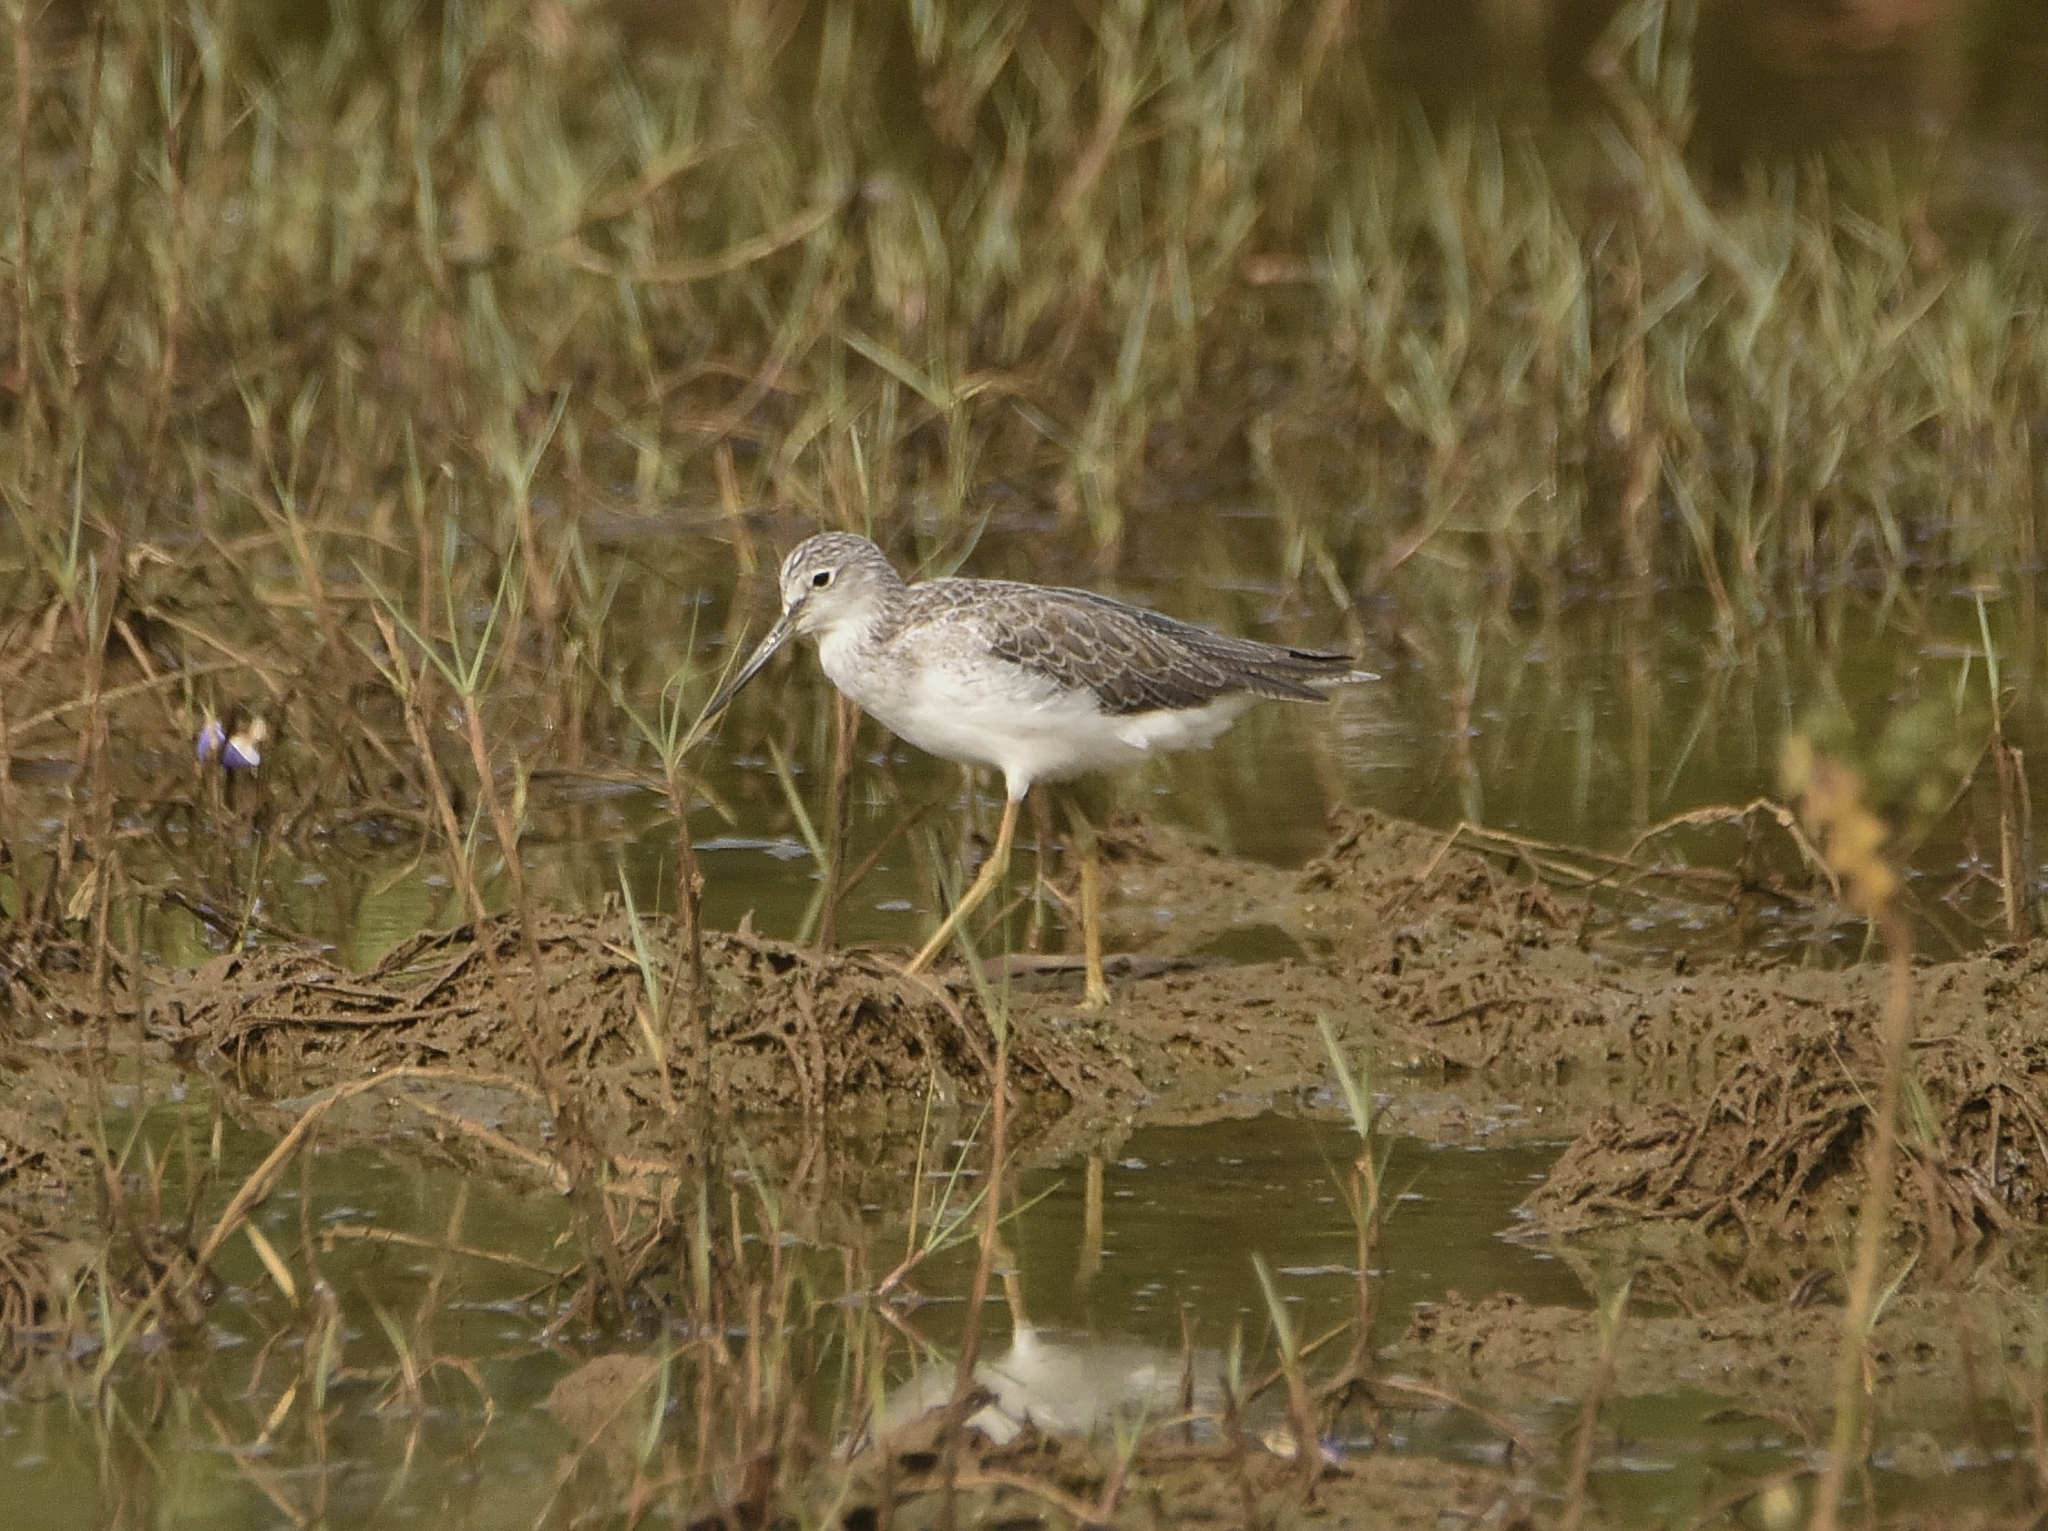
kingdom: Animalia
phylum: Chordata
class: Aves
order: Charadriiformes
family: Scolopacidae
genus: Tringa
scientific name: Tringa nebularia
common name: Common greenshank
